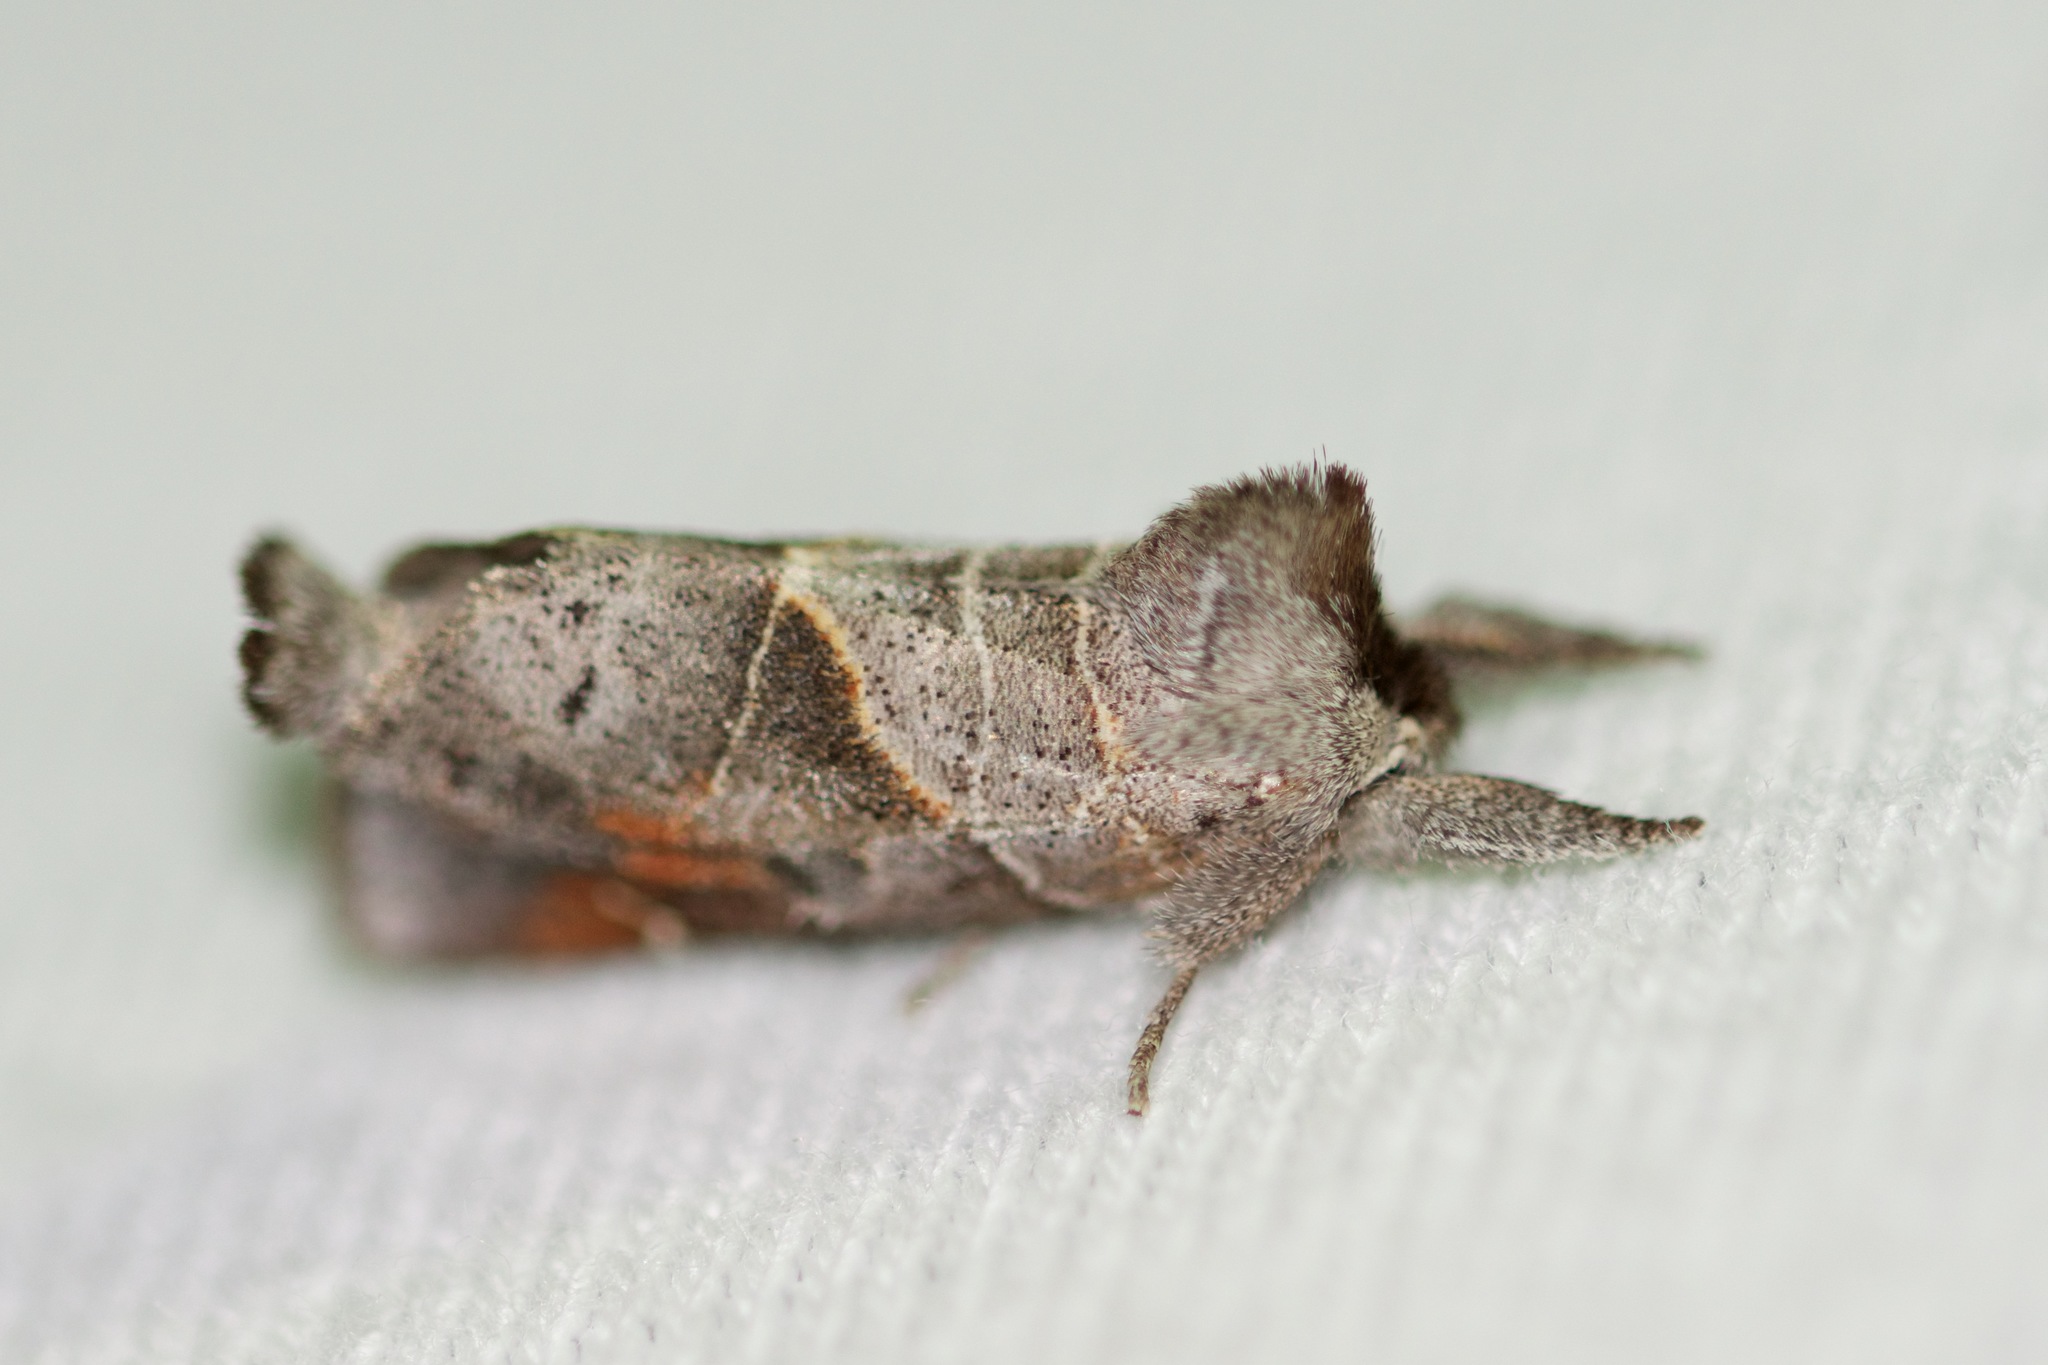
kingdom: Animalia
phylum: Arthropoda
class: Insecta
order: Lepidoptera
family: Notodontidae
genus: Clostera
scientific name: Clostera apicalis
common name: Apical prominent
